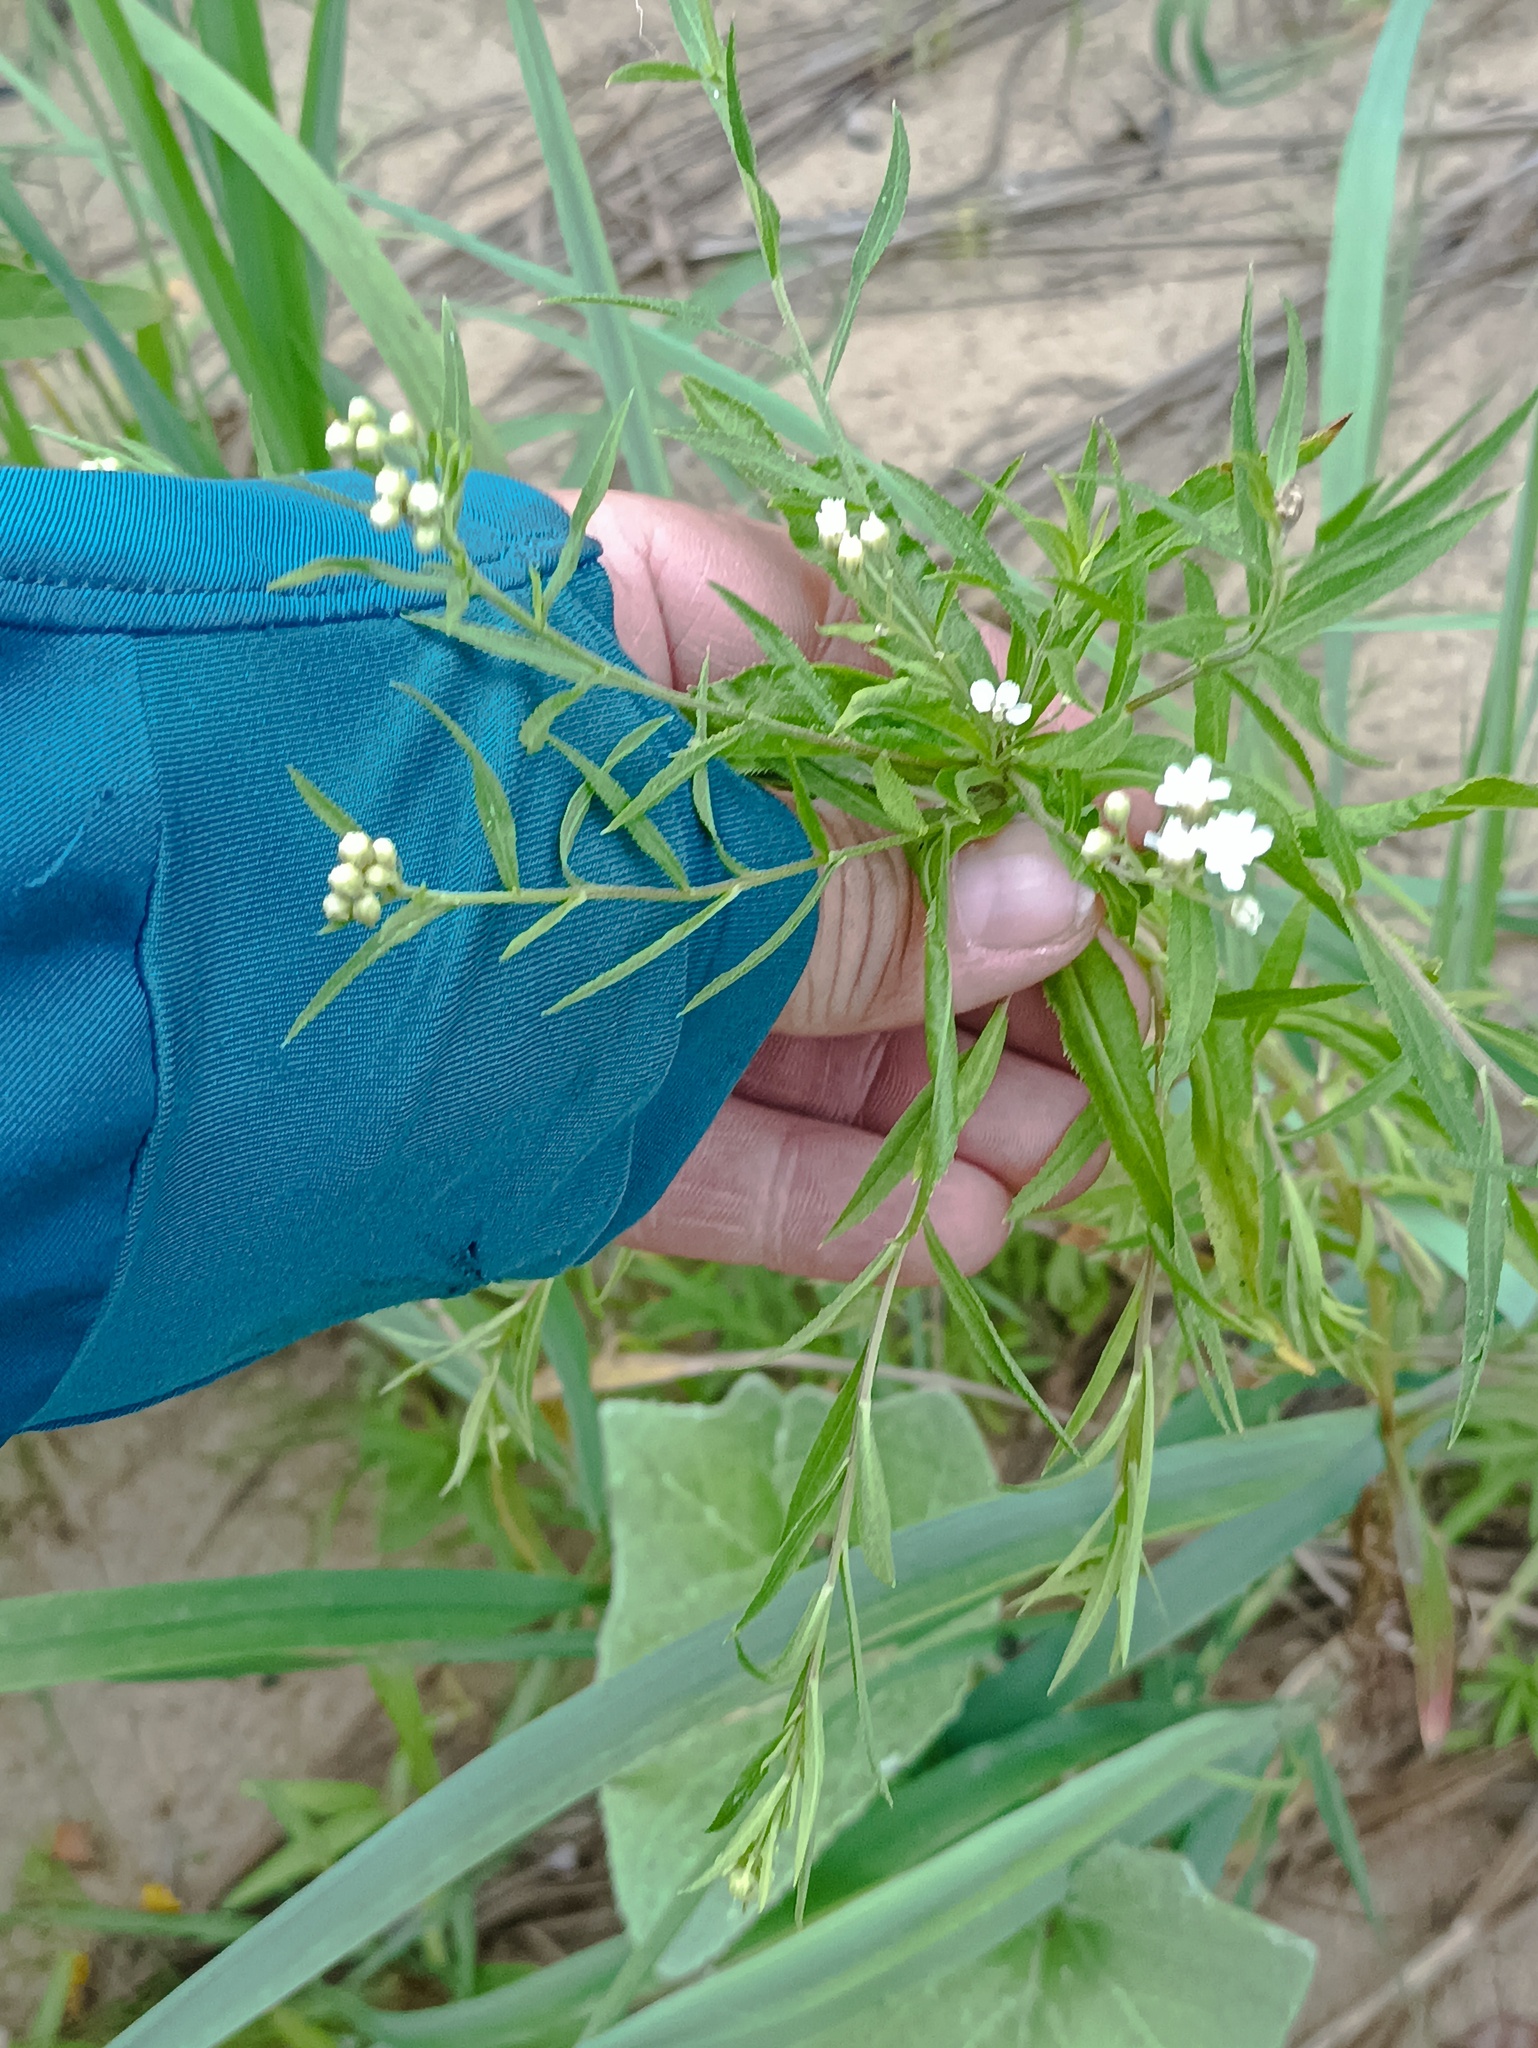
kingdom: Plantae
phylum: Tracheophyta
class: Magnoliopsida
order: Asterales
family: Asteraceae
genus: Achillea
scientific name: Achillea salicifolia
